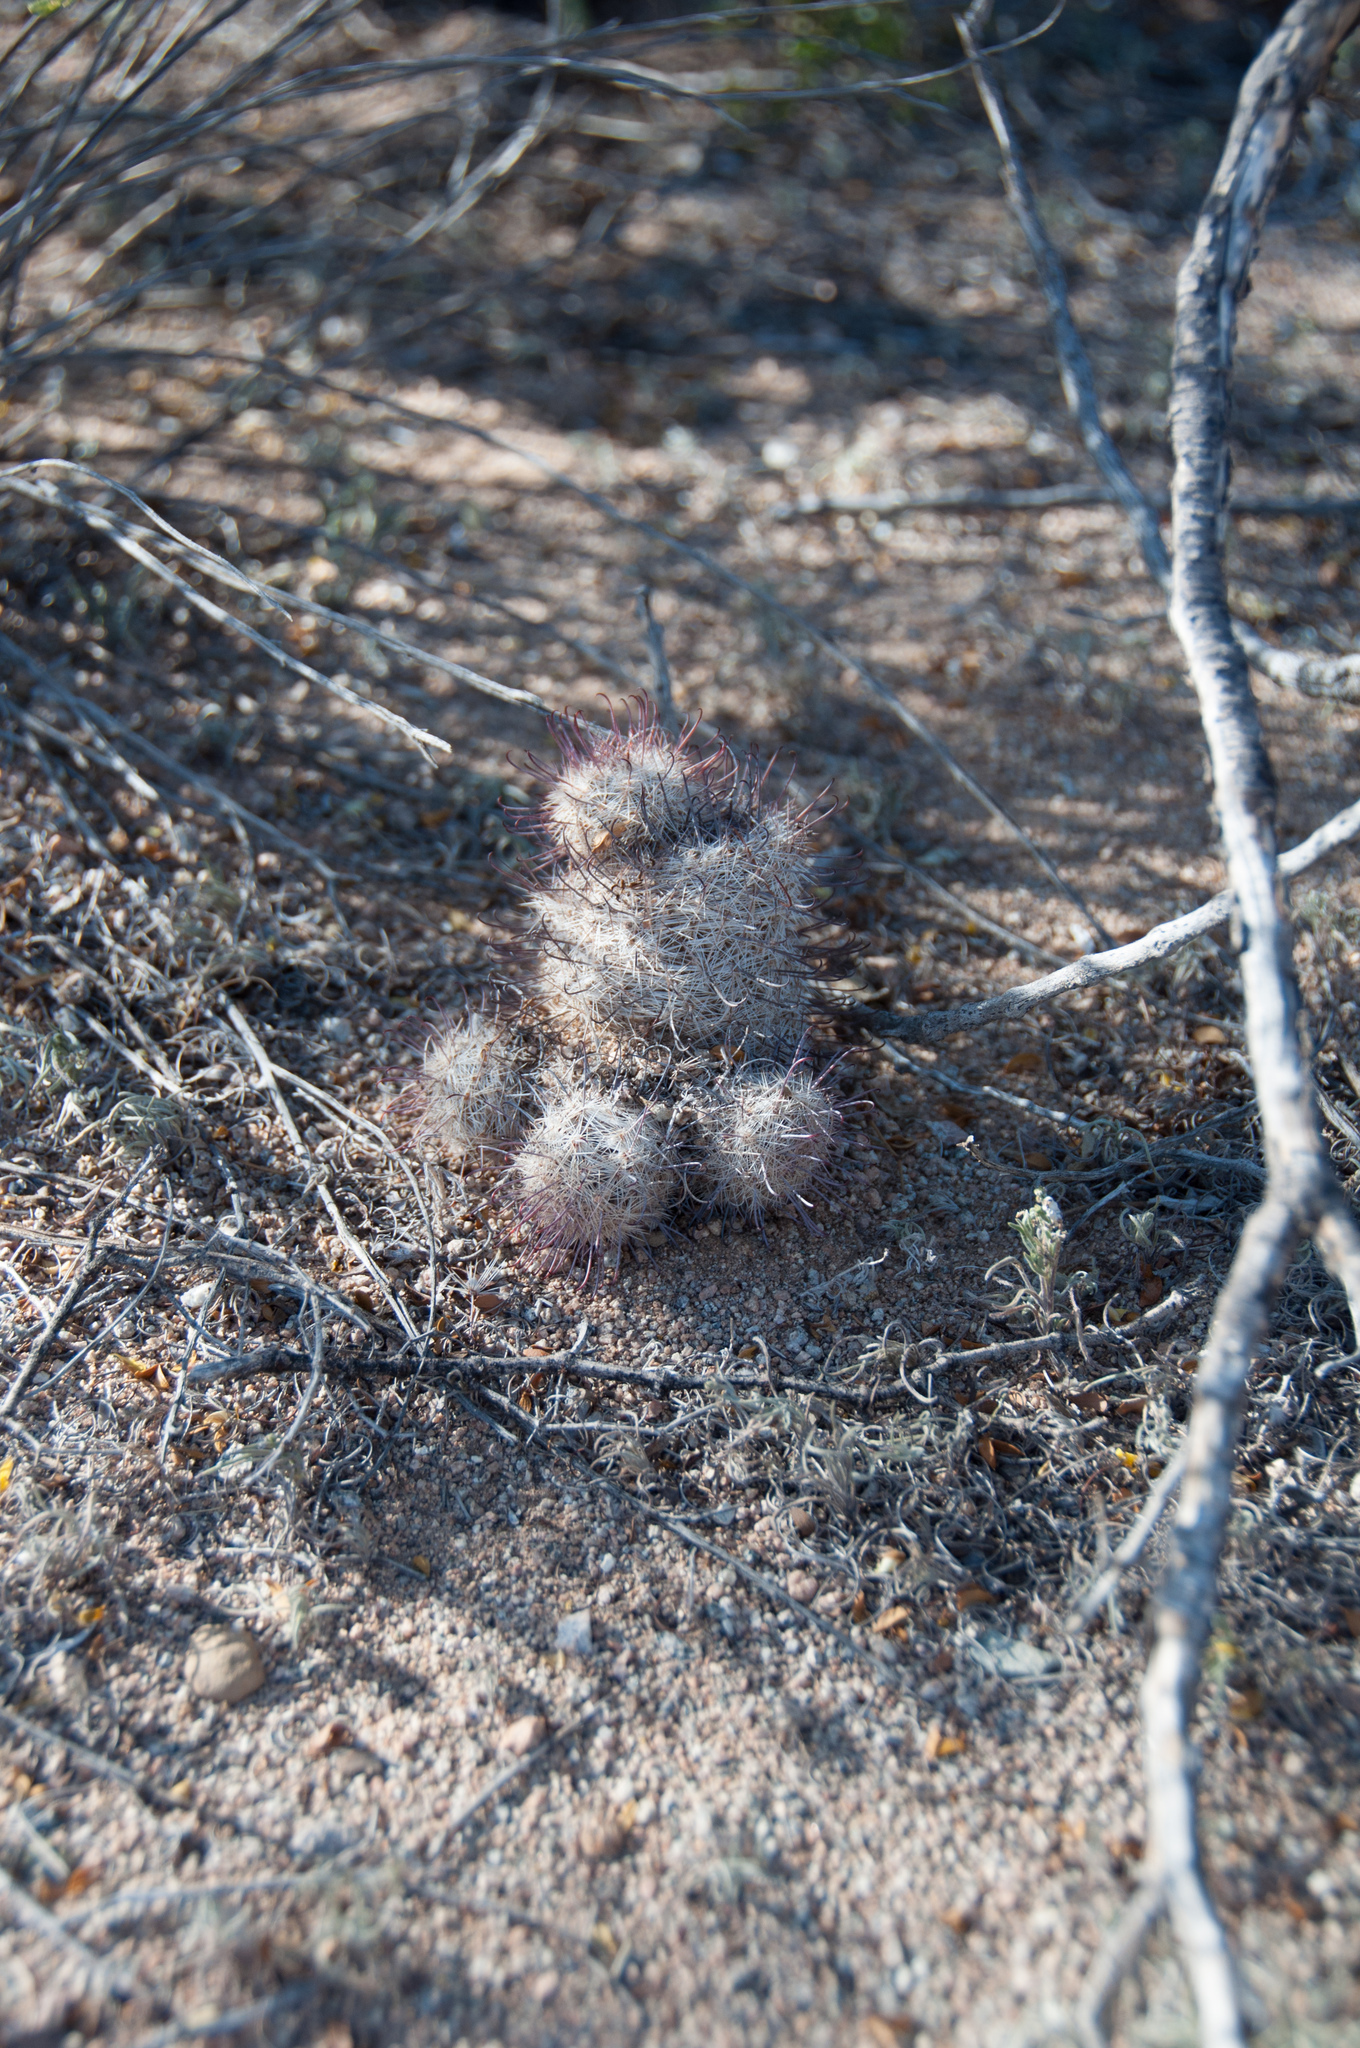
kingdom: Plantae
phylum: Tracheophyta
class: Magnoliopsida
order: Caryophyllales
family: Cactaceae
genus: Cochemiea
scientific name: Cochemiea grahamii
